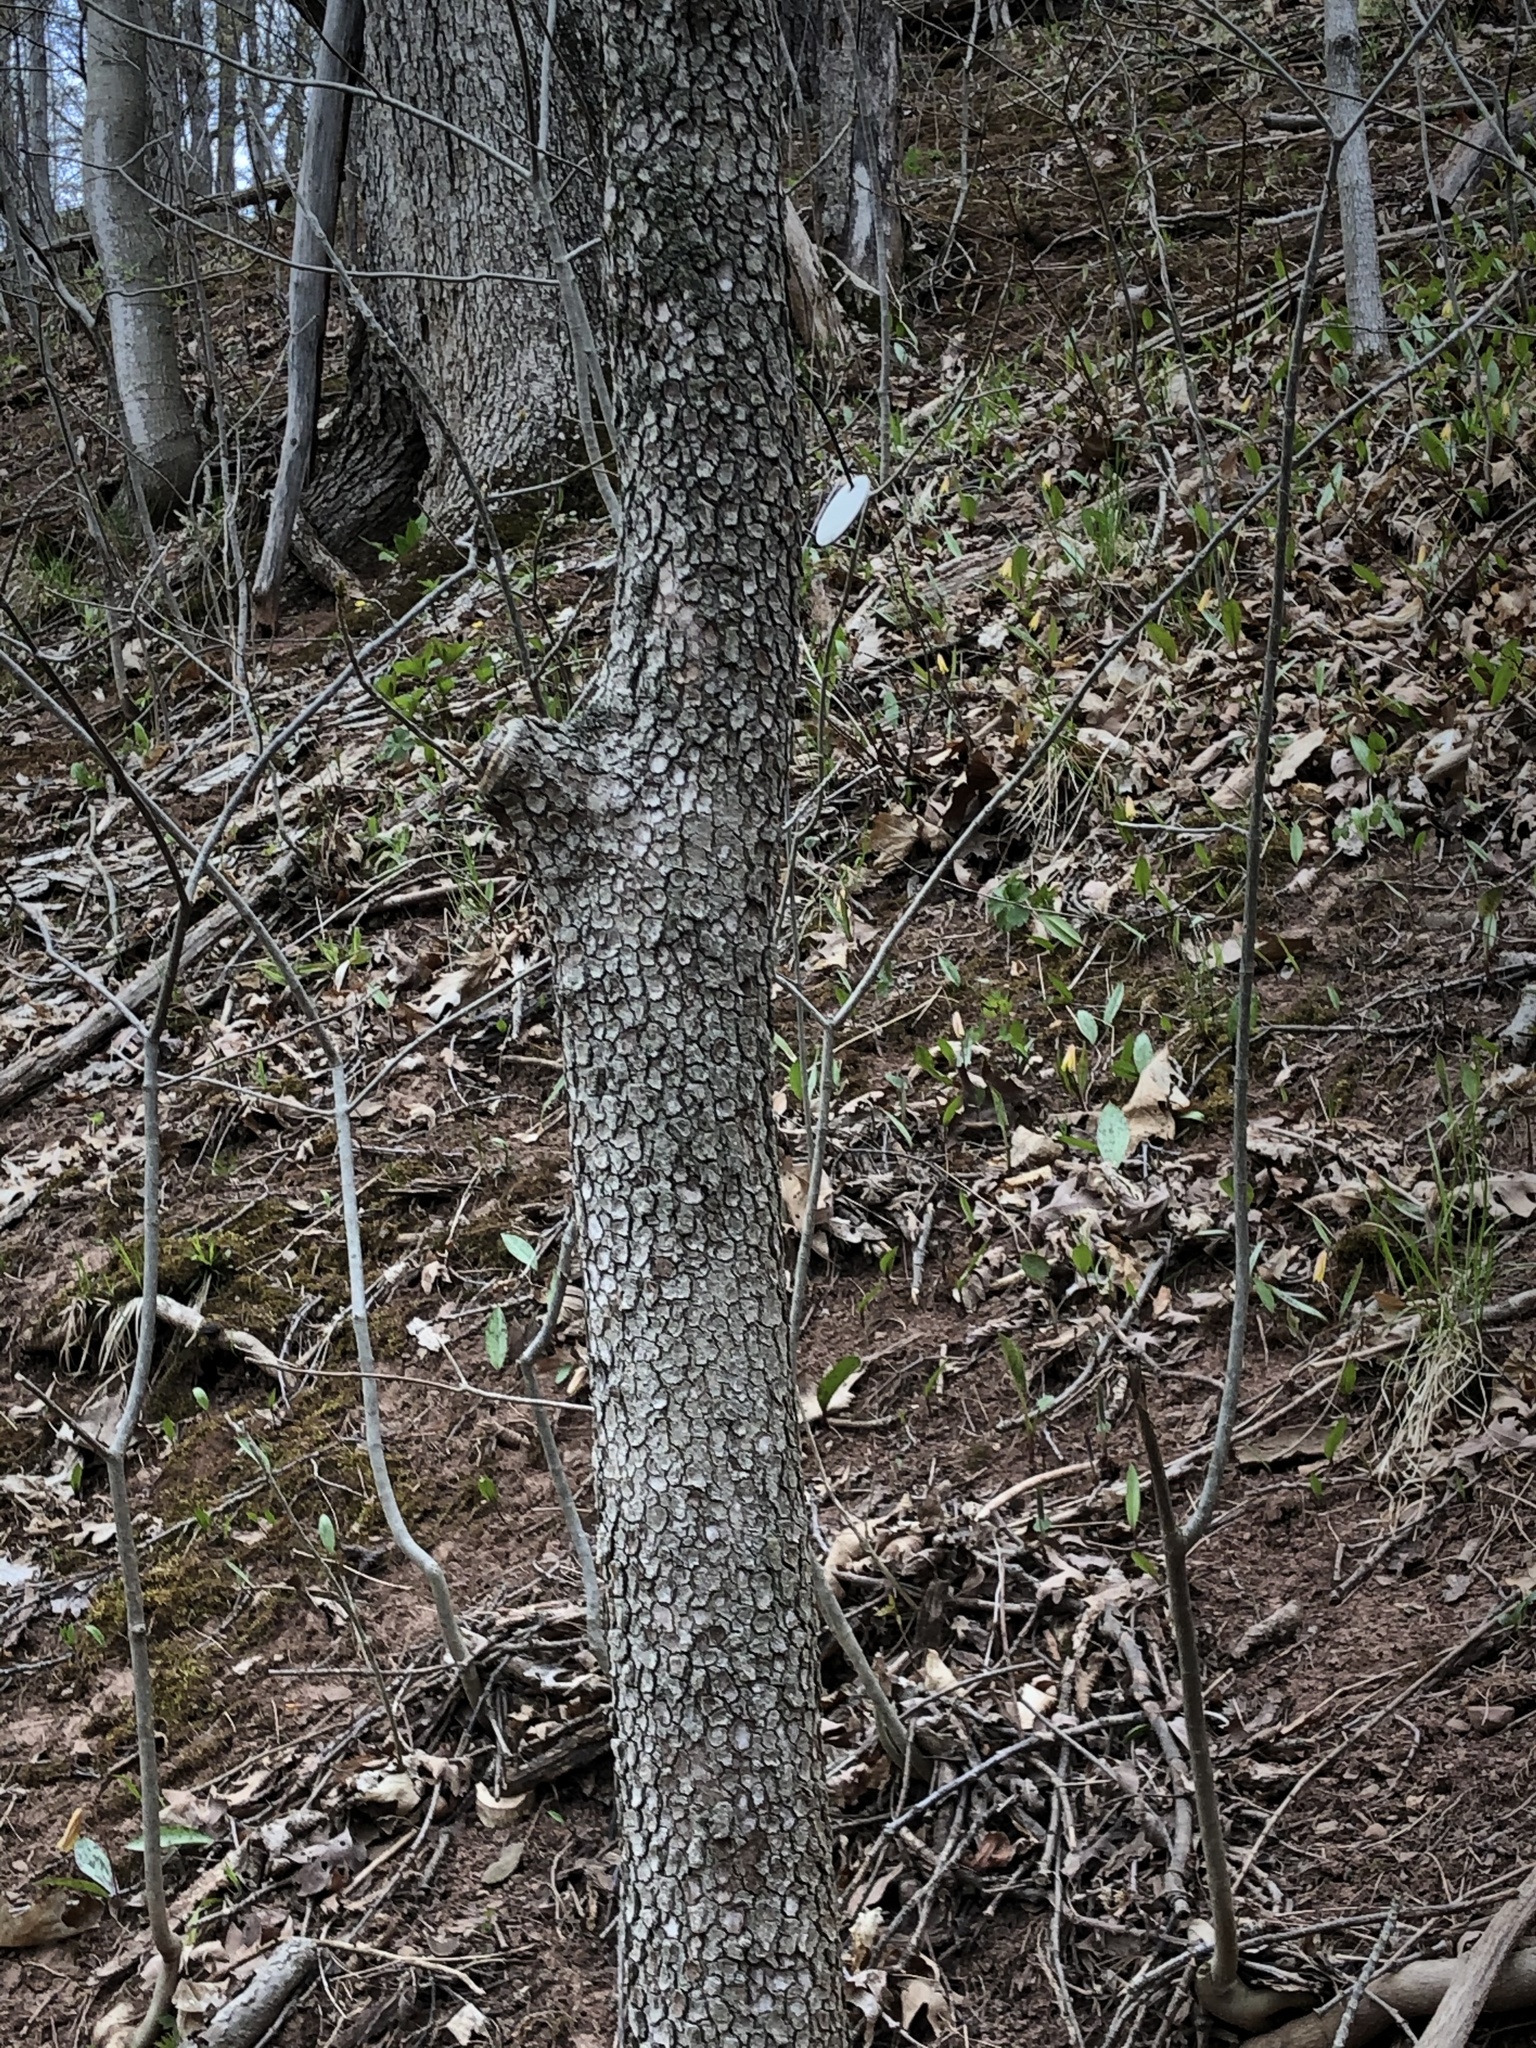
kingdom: Plantae
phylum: Tracheophyta
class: Magnoliopsida
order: Cornales
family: Cornaceae
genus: Cornus
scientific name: Cornus florida
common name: Flowering dogwood
